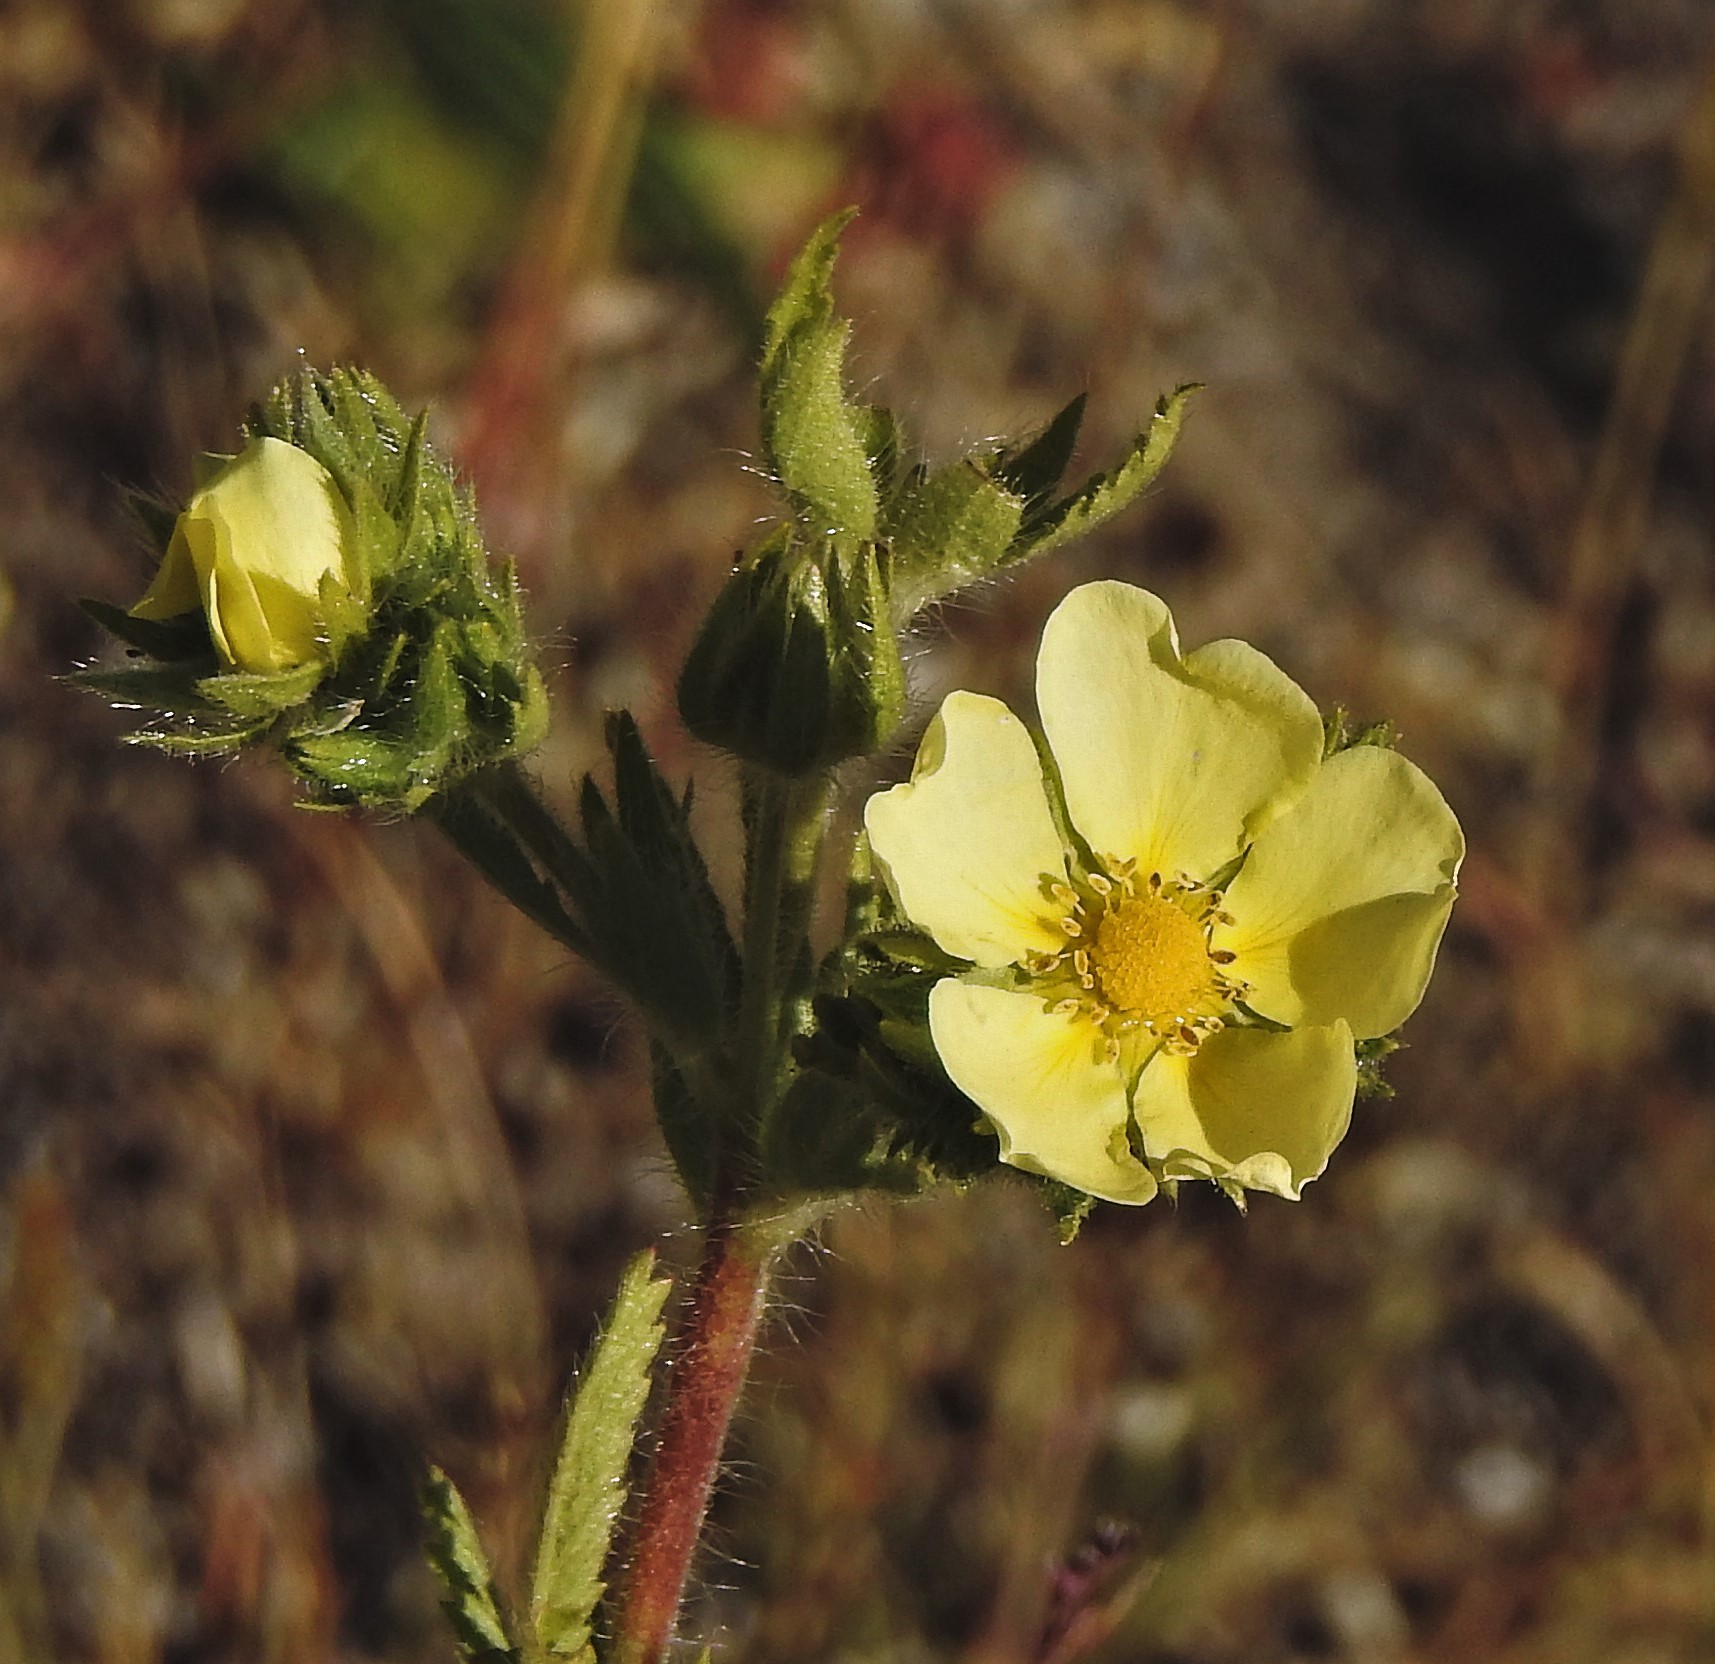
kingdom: Plantae
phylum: Tracheophyta
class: Magnoliopsida
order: Rosales
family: Rosaceae
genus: Potentilla
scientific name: Potentilla recta
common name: Sulphur cinquefoil
